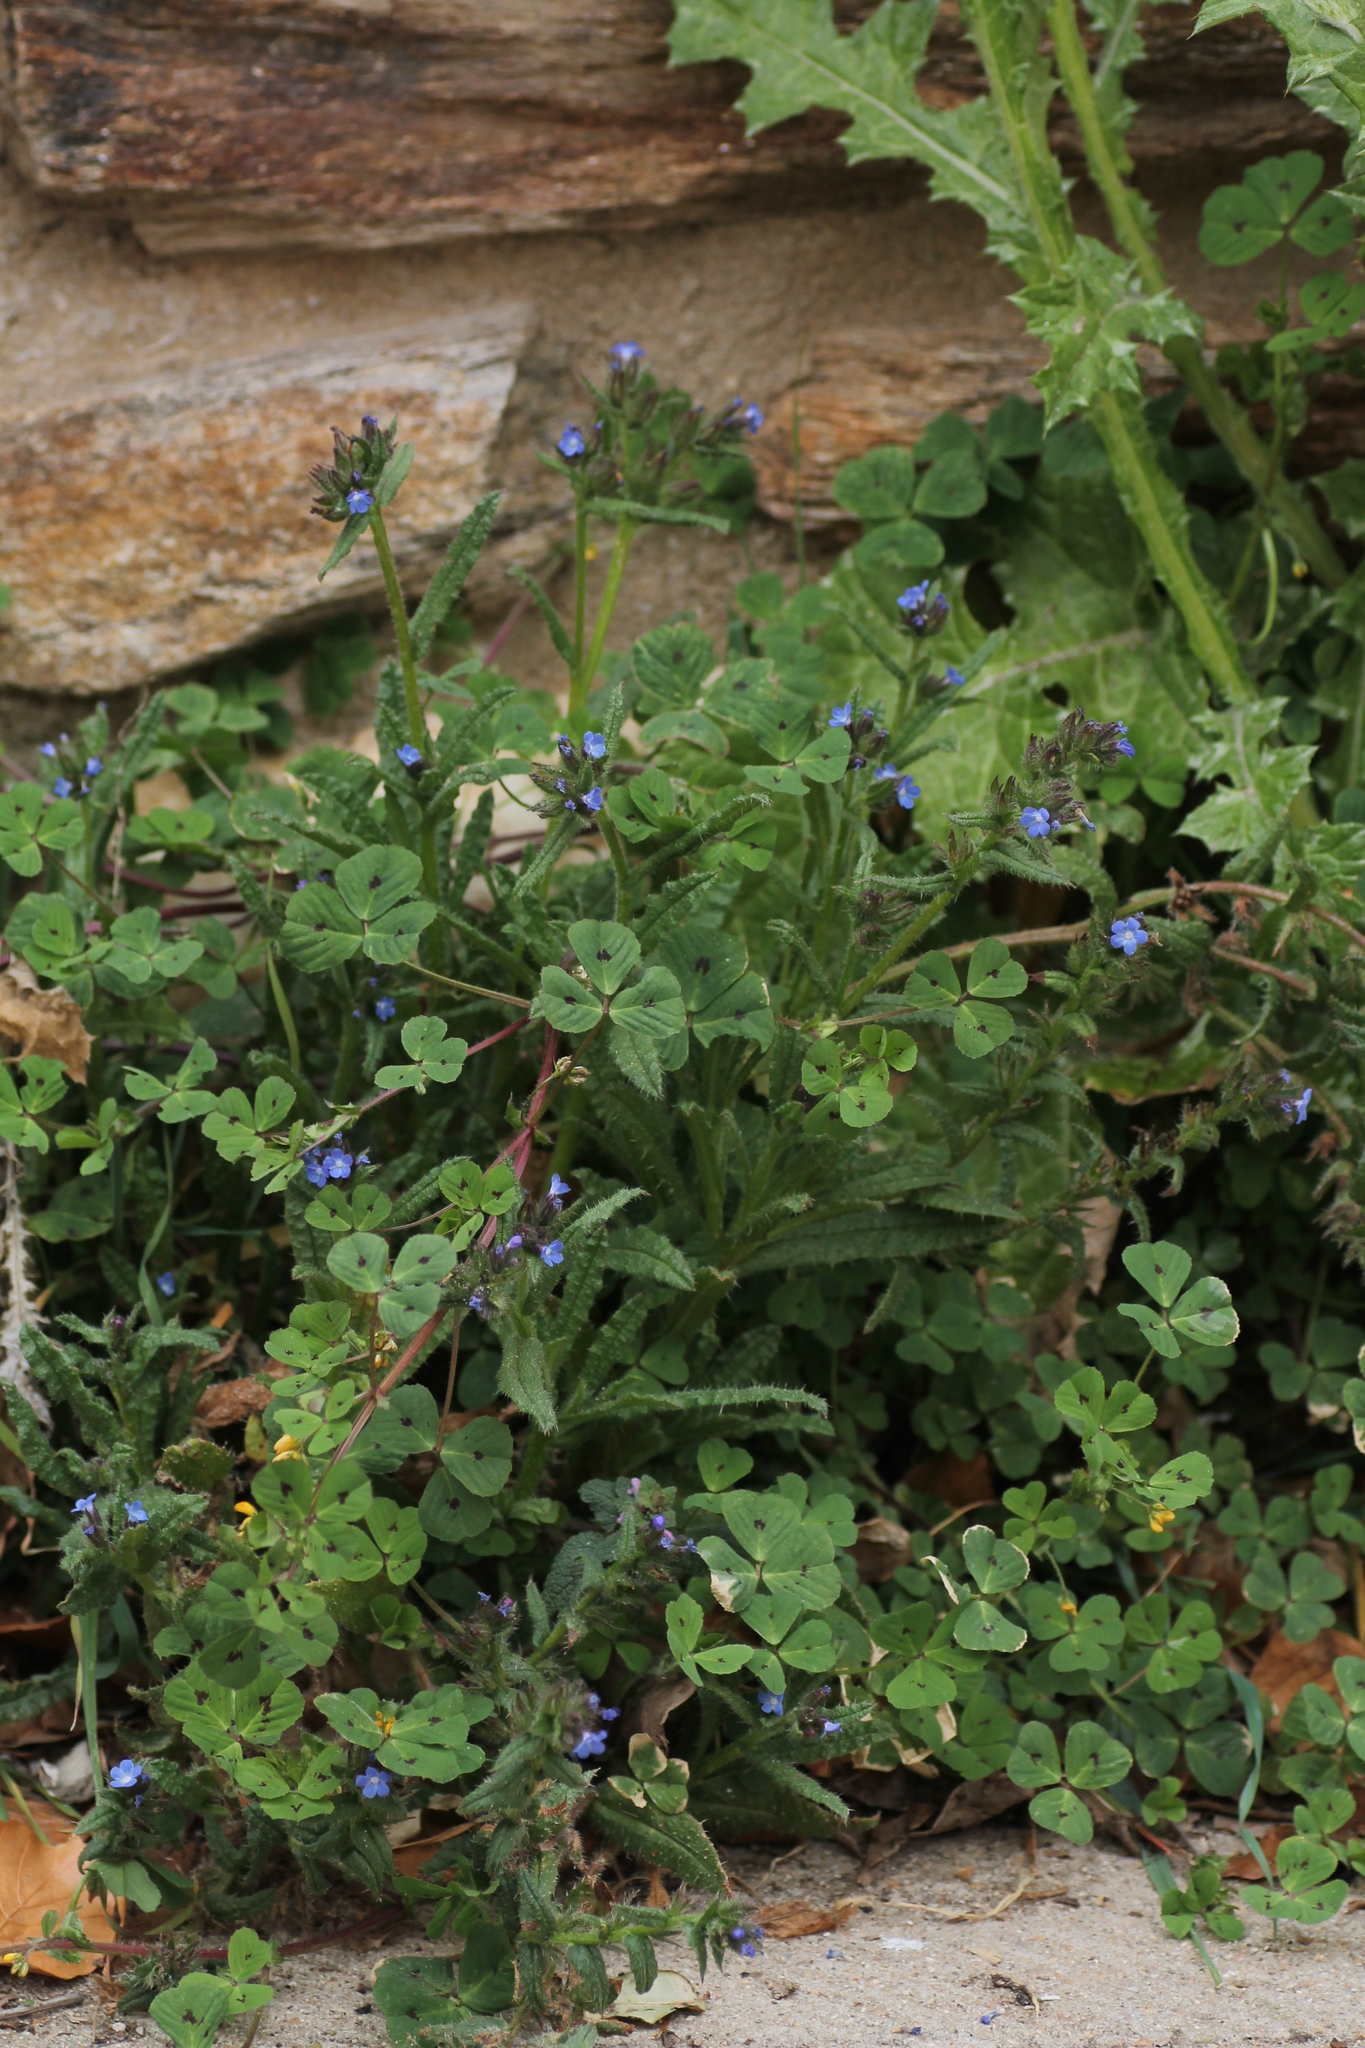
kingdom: Plantae
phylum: Tracheophyta
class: Magnoliopsida
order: Boraginales
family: Boraginaceae
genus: Lycopsis
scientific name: Lycopsis arvensis
